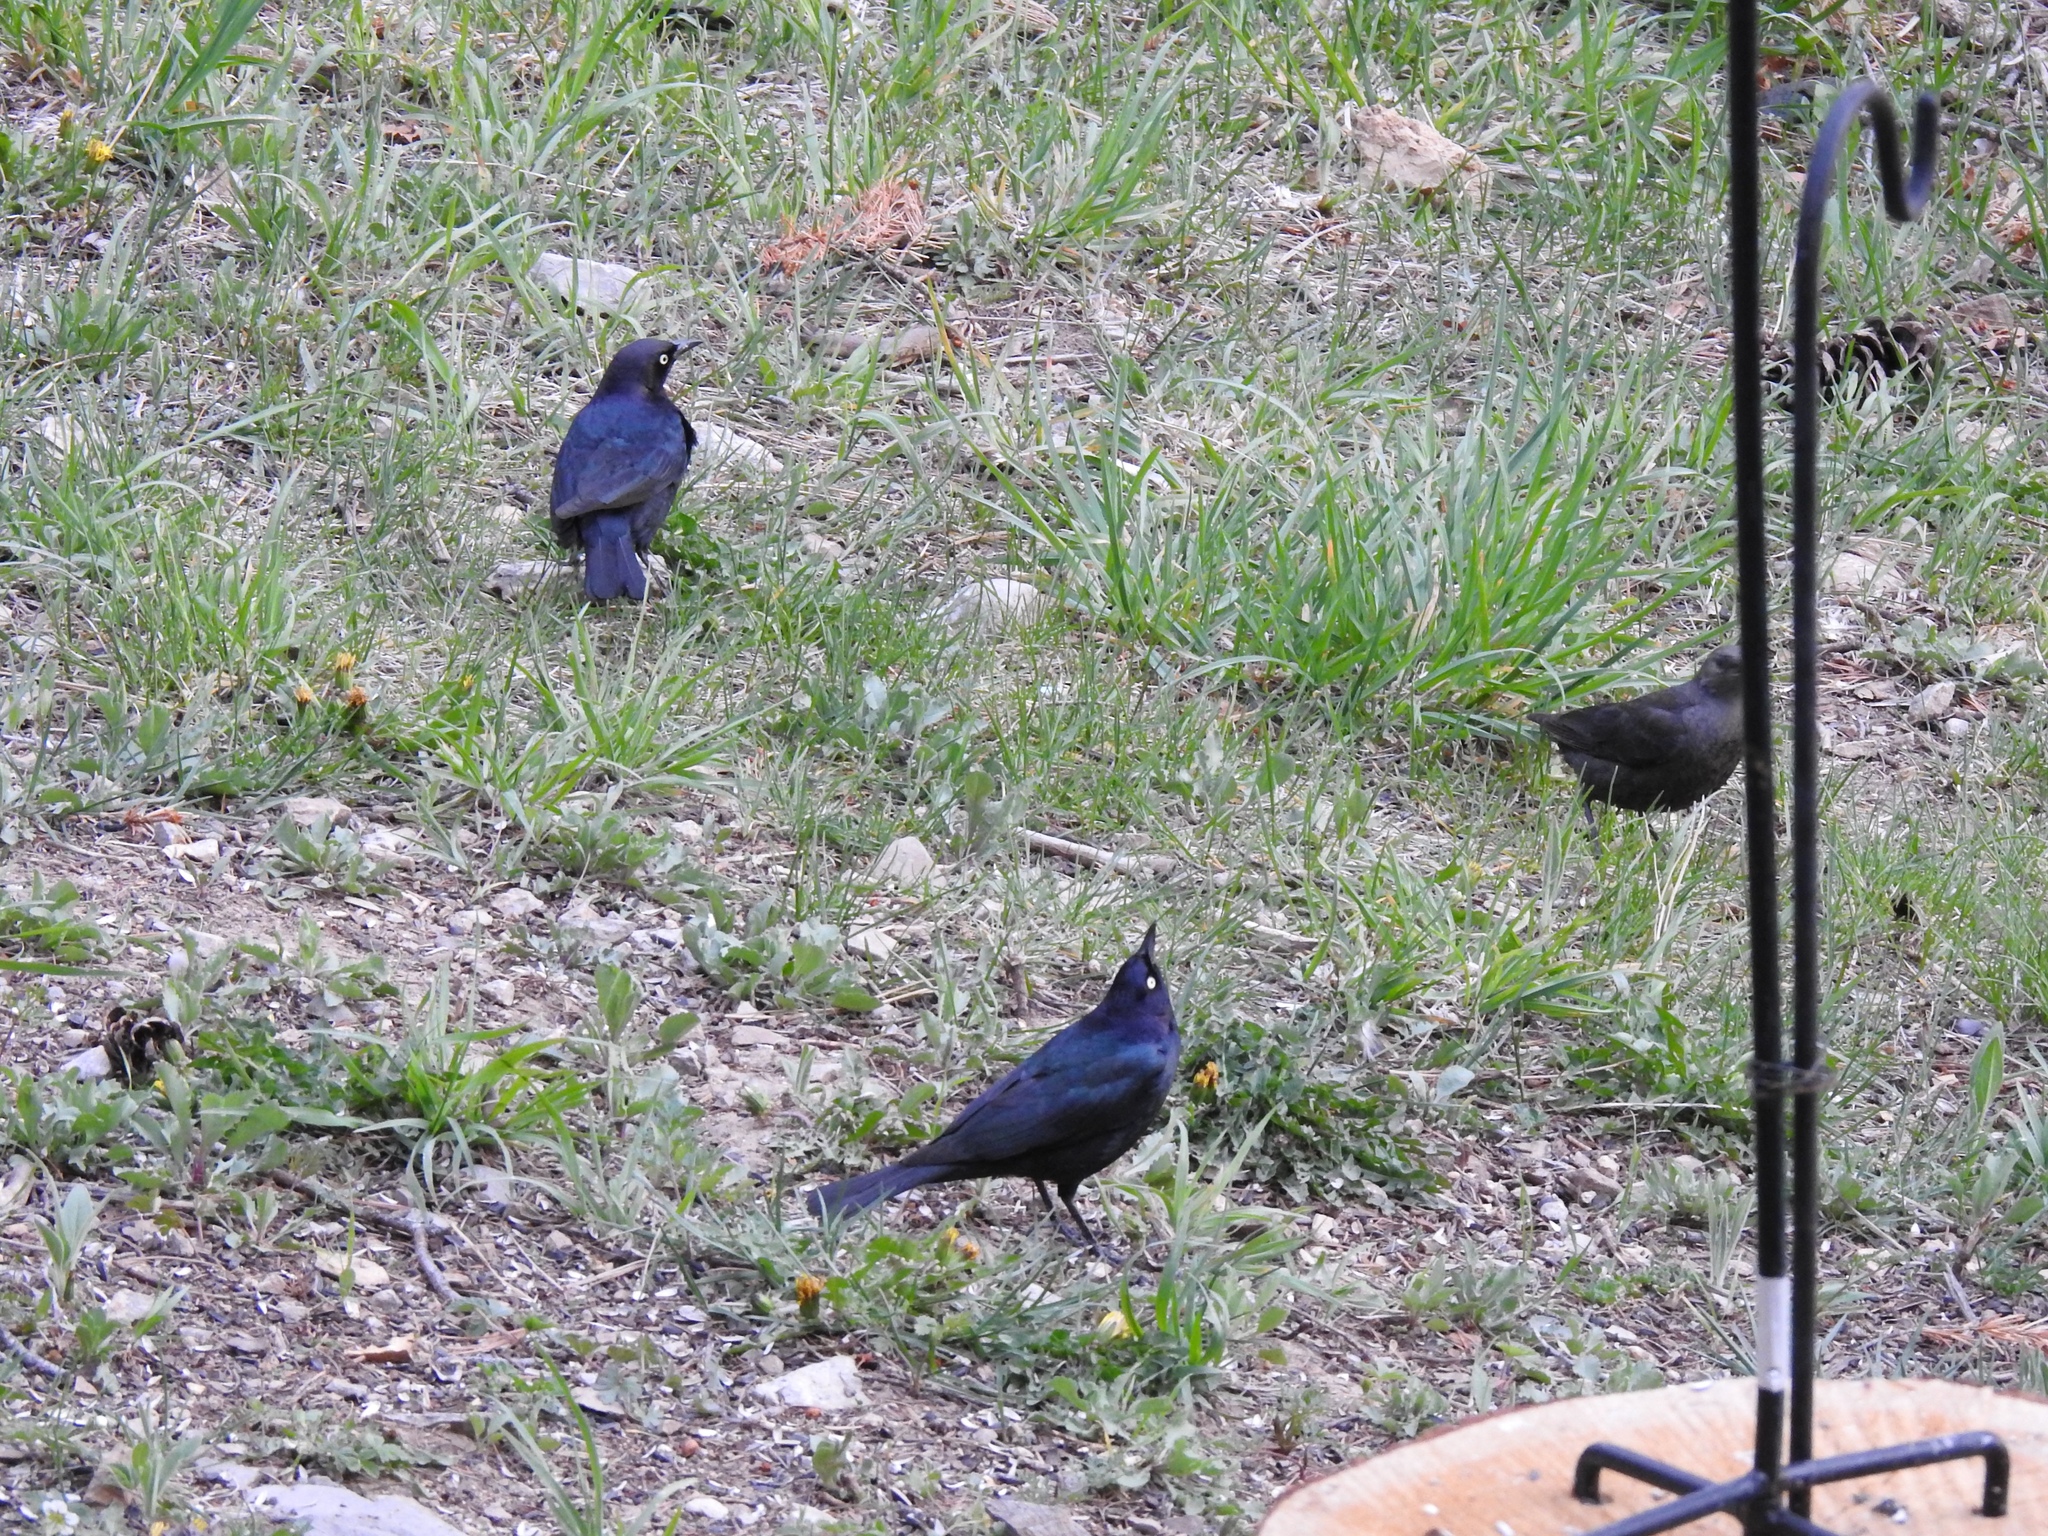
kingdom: Animalia
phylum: Chordata
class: Aves
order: Passeriformes
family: Icteridae
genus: Euphagus
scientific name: Euphagus cyanocephalus
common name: Brewer's blackbird
